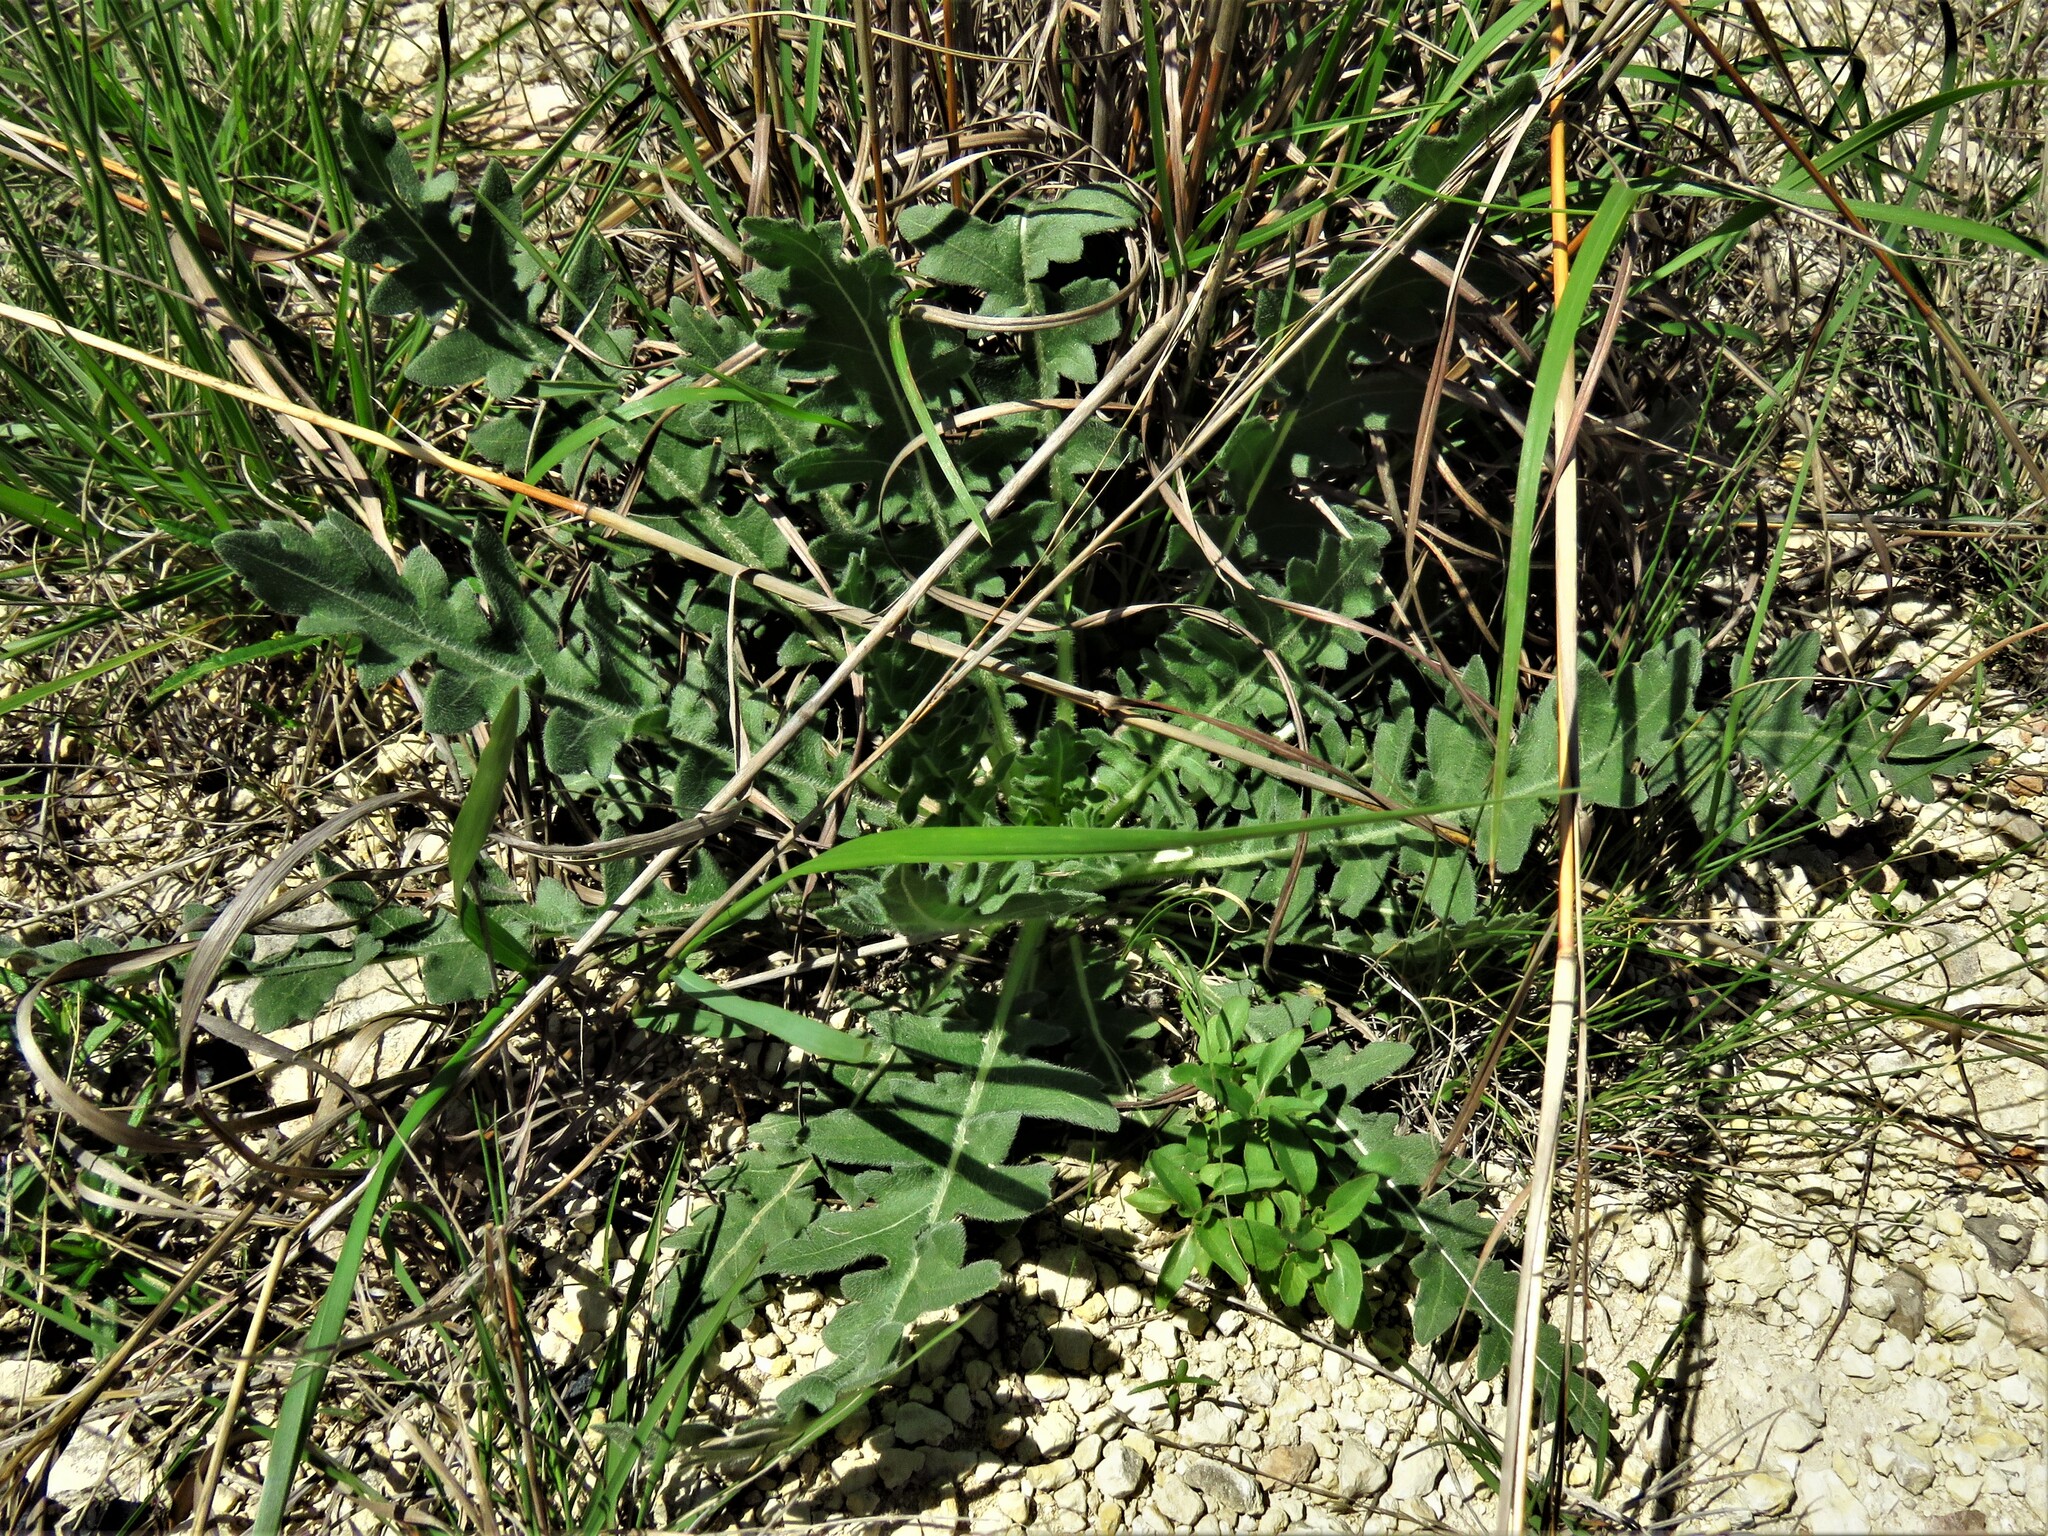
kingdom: Plantae
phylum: Tracheophyta
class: Magnoliopsida
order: Asterales
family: Asteraceae
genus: Engelmannia
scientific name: Engelmannia peristenia
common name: Engelmann's daisy
